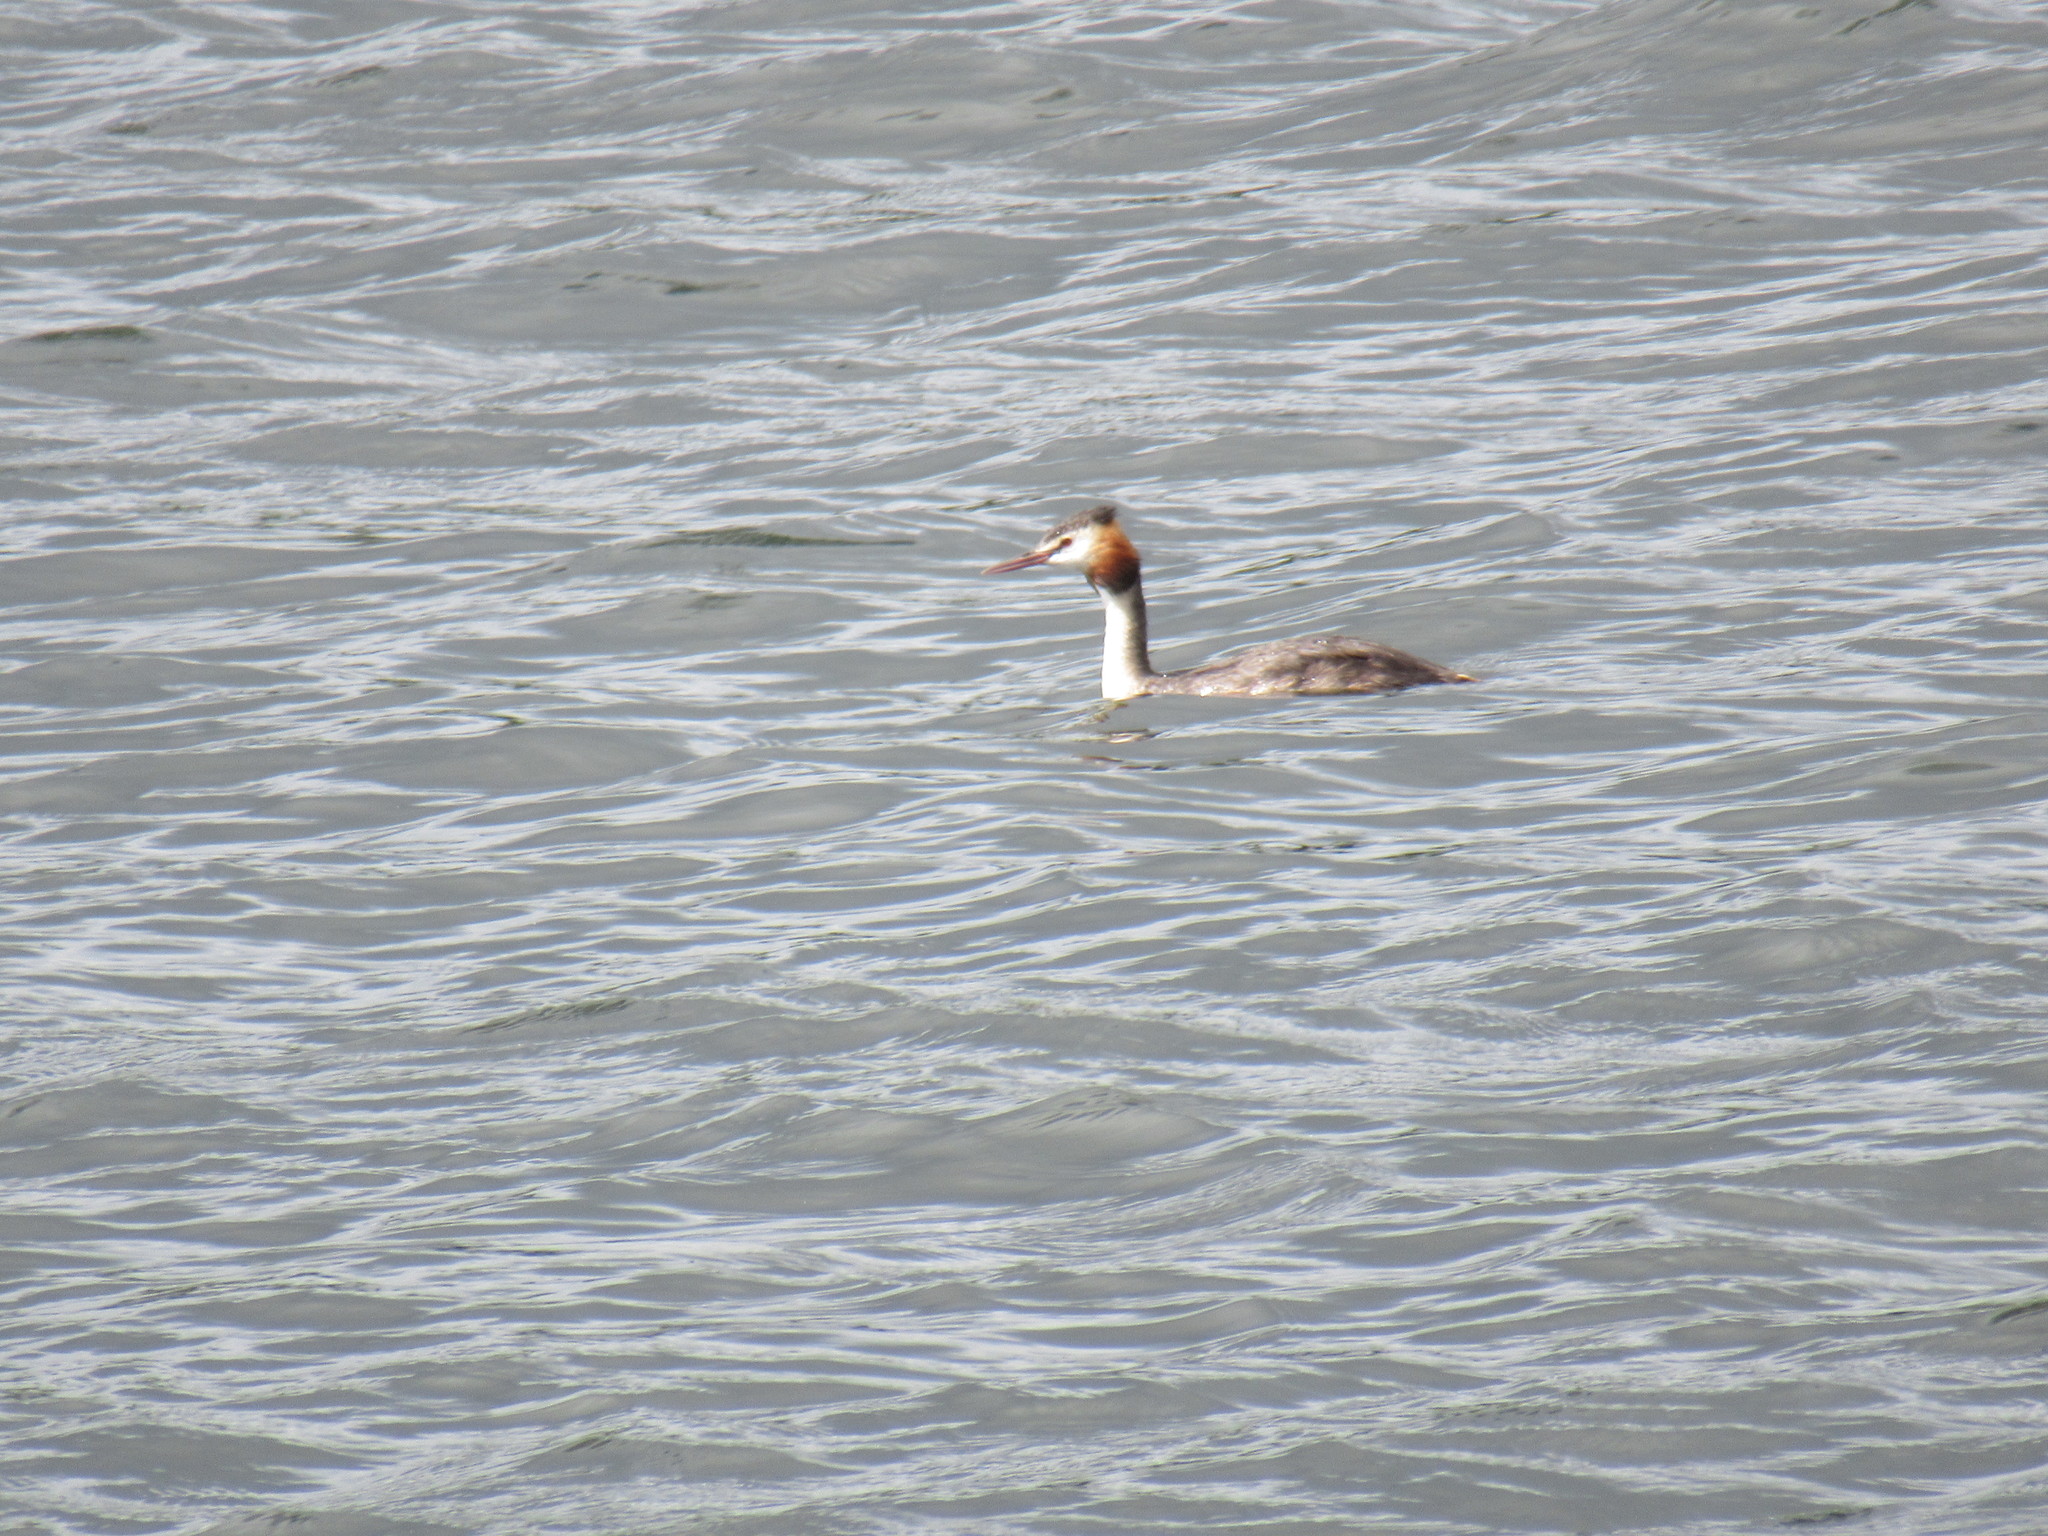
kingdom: Animalia
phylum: Chordata
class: Aves
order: Podicipediformes
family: Podicipedidae
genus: Podiceps
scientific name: Podiceps cristatus
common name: Great crested grebe
